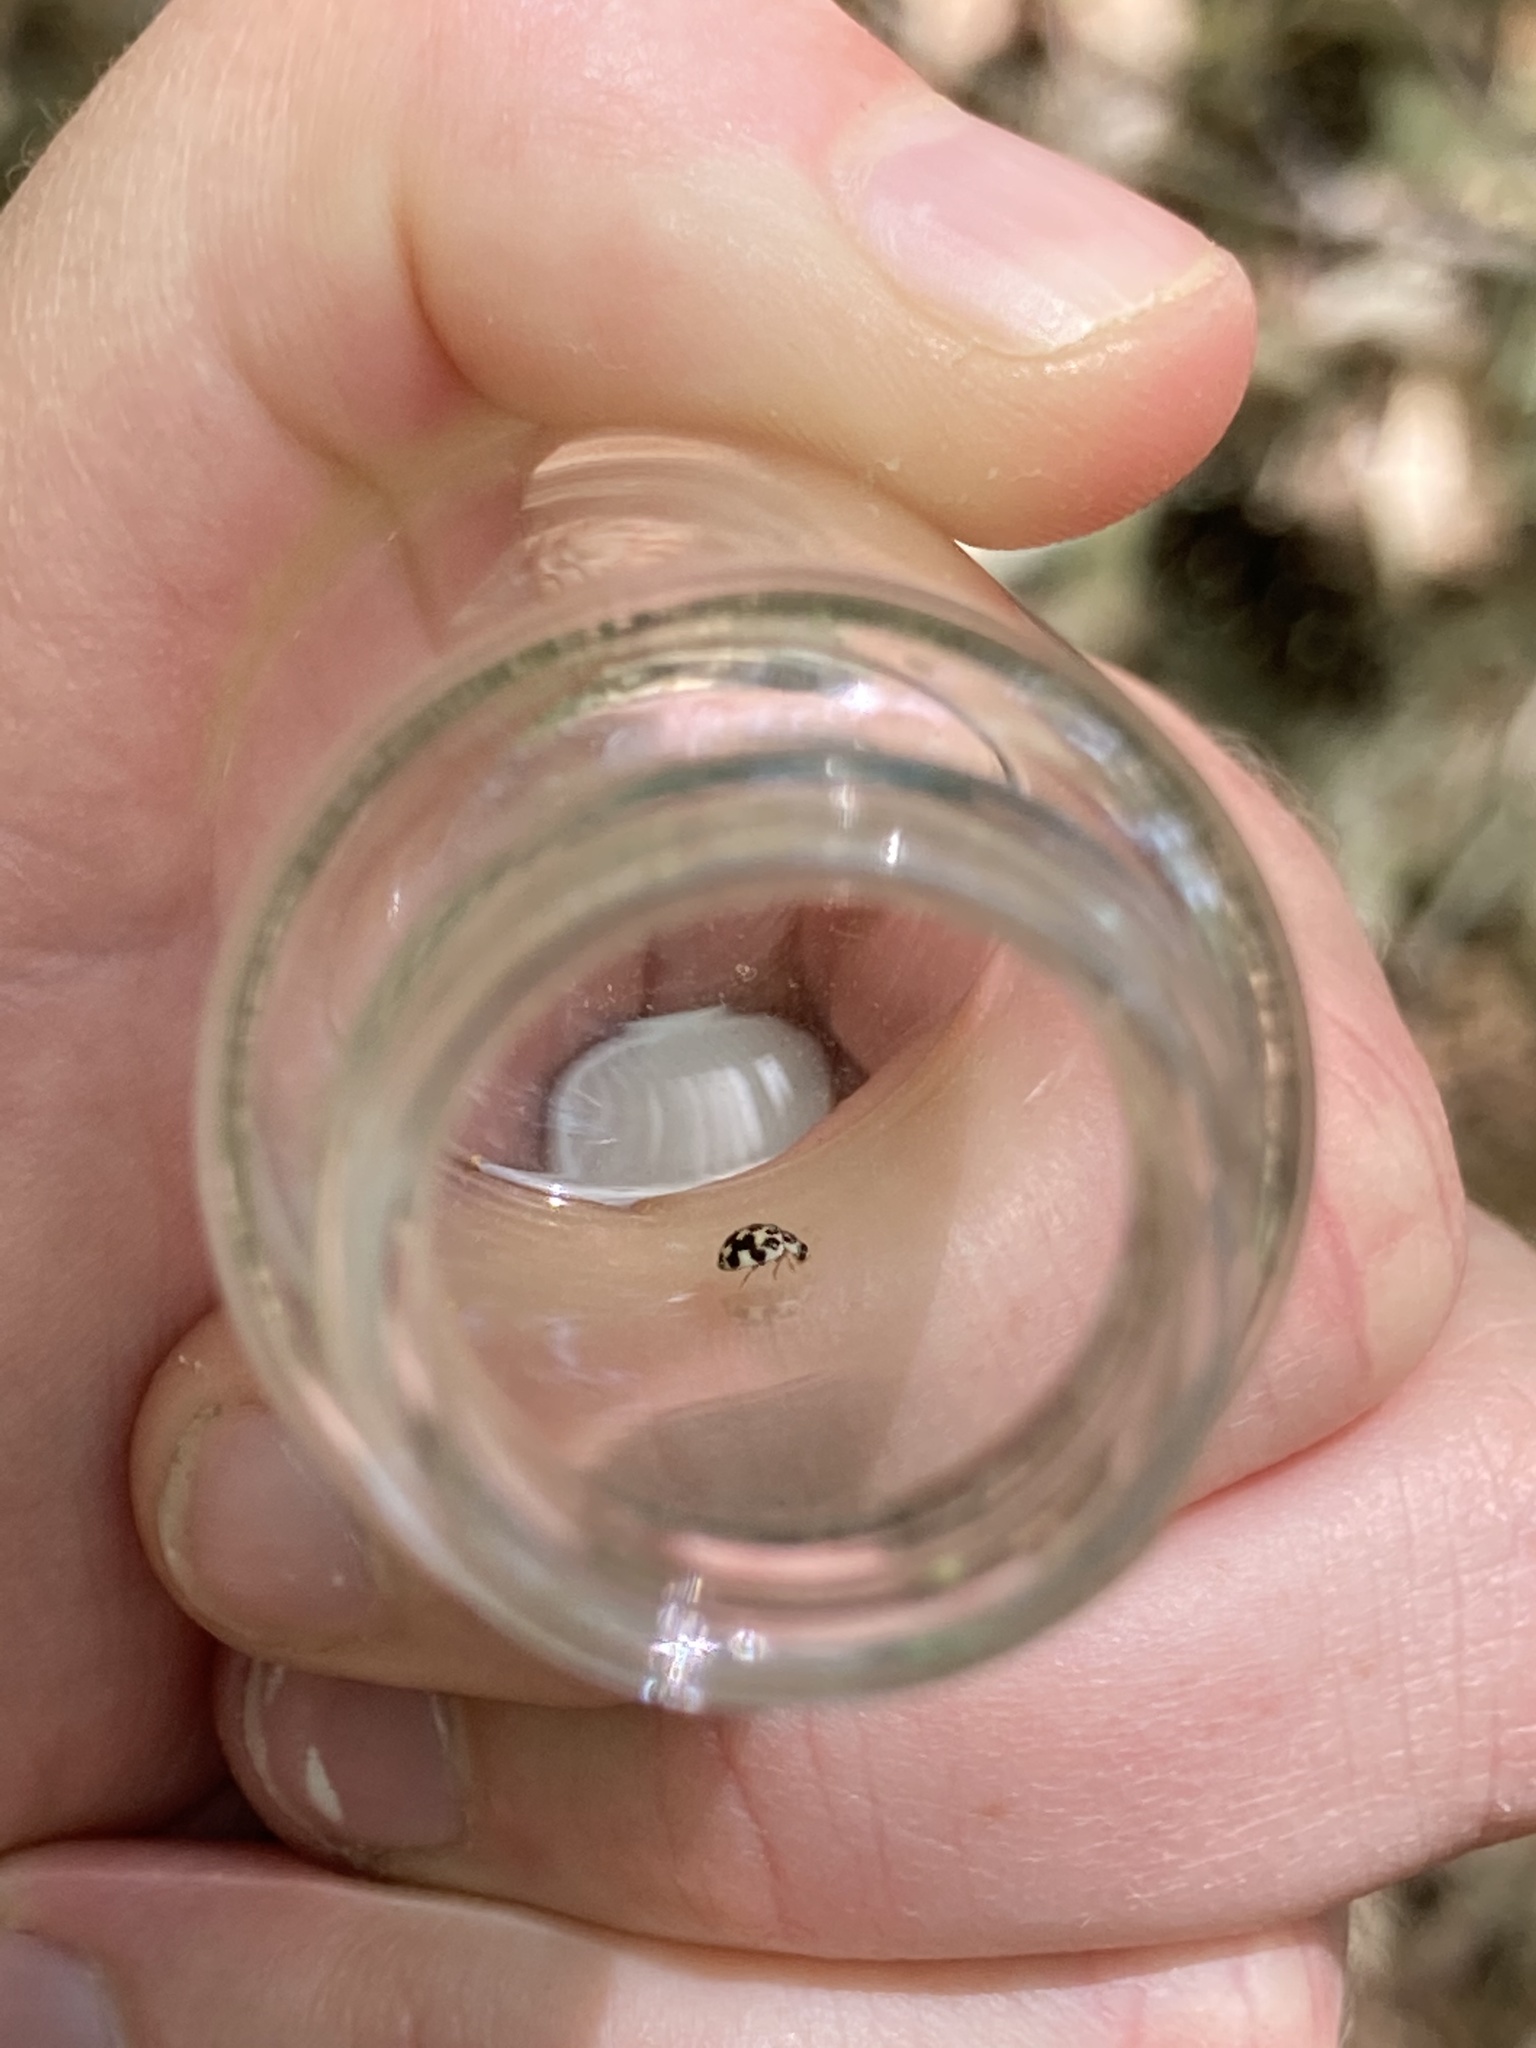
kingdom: Animalia
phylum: Arthropoda
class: Insecta
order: Coleoptera
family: Coccinellidae
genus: Psyllobora
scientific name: Psyllobora vigintimaculata
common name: Ladybird beetle
